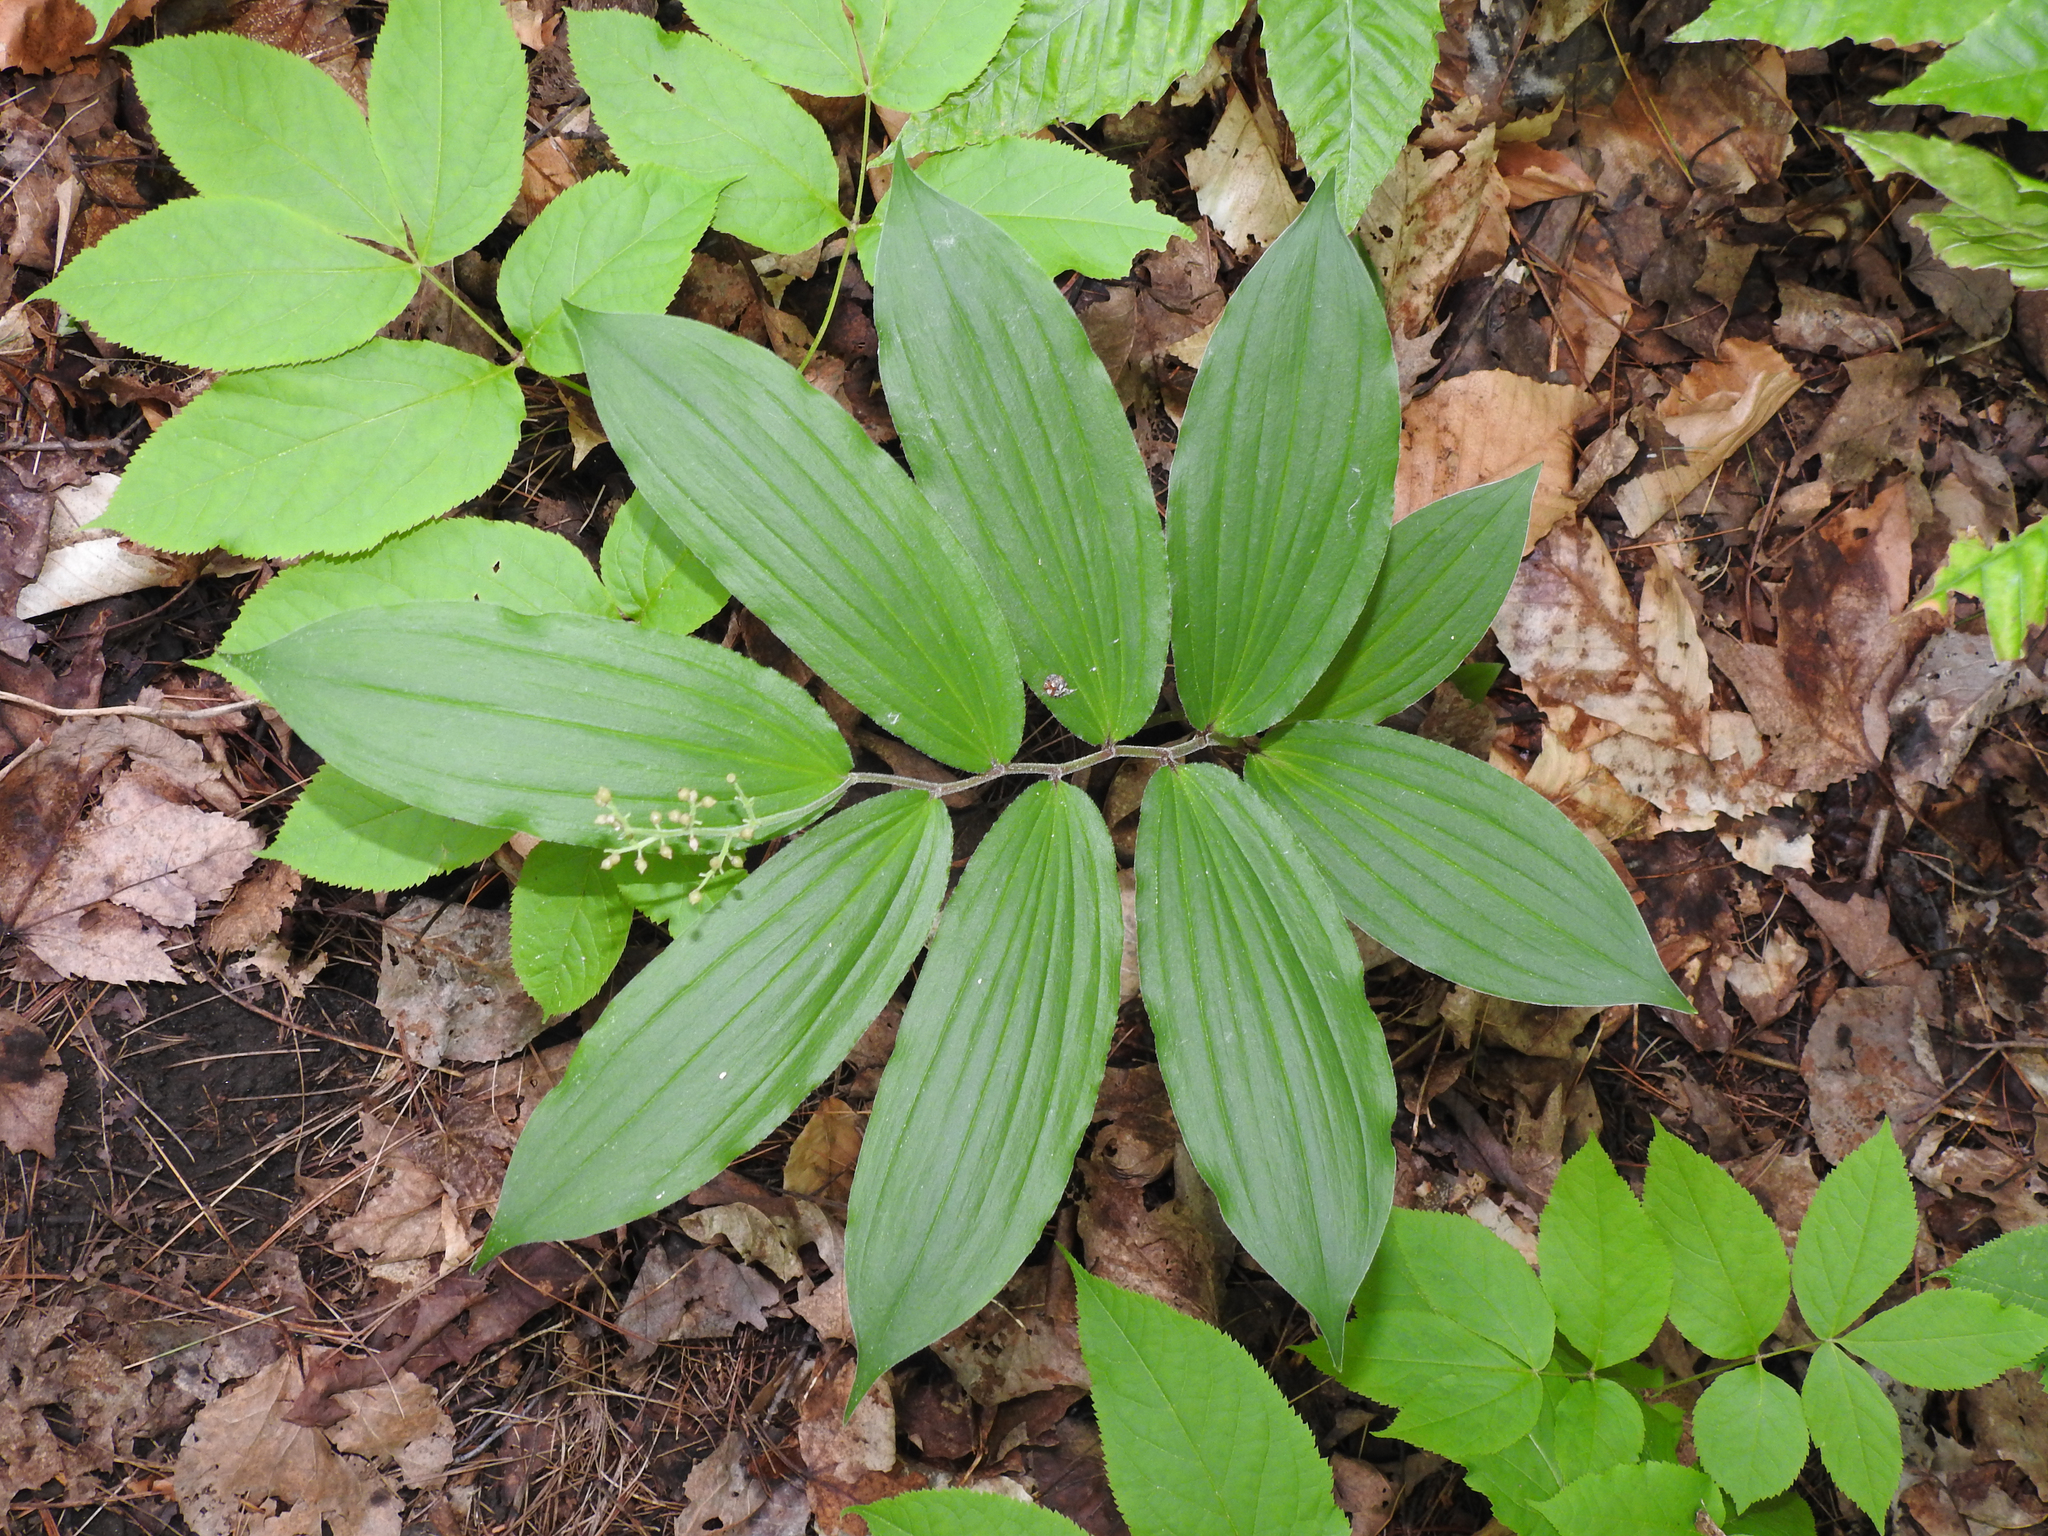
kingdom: Plantae
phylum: Tracheophyta
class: Liliopsida
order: Asparagales
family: Asparagaceae
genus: Maianthemum
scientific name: Maianthemum racemosum
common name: False spikenard
